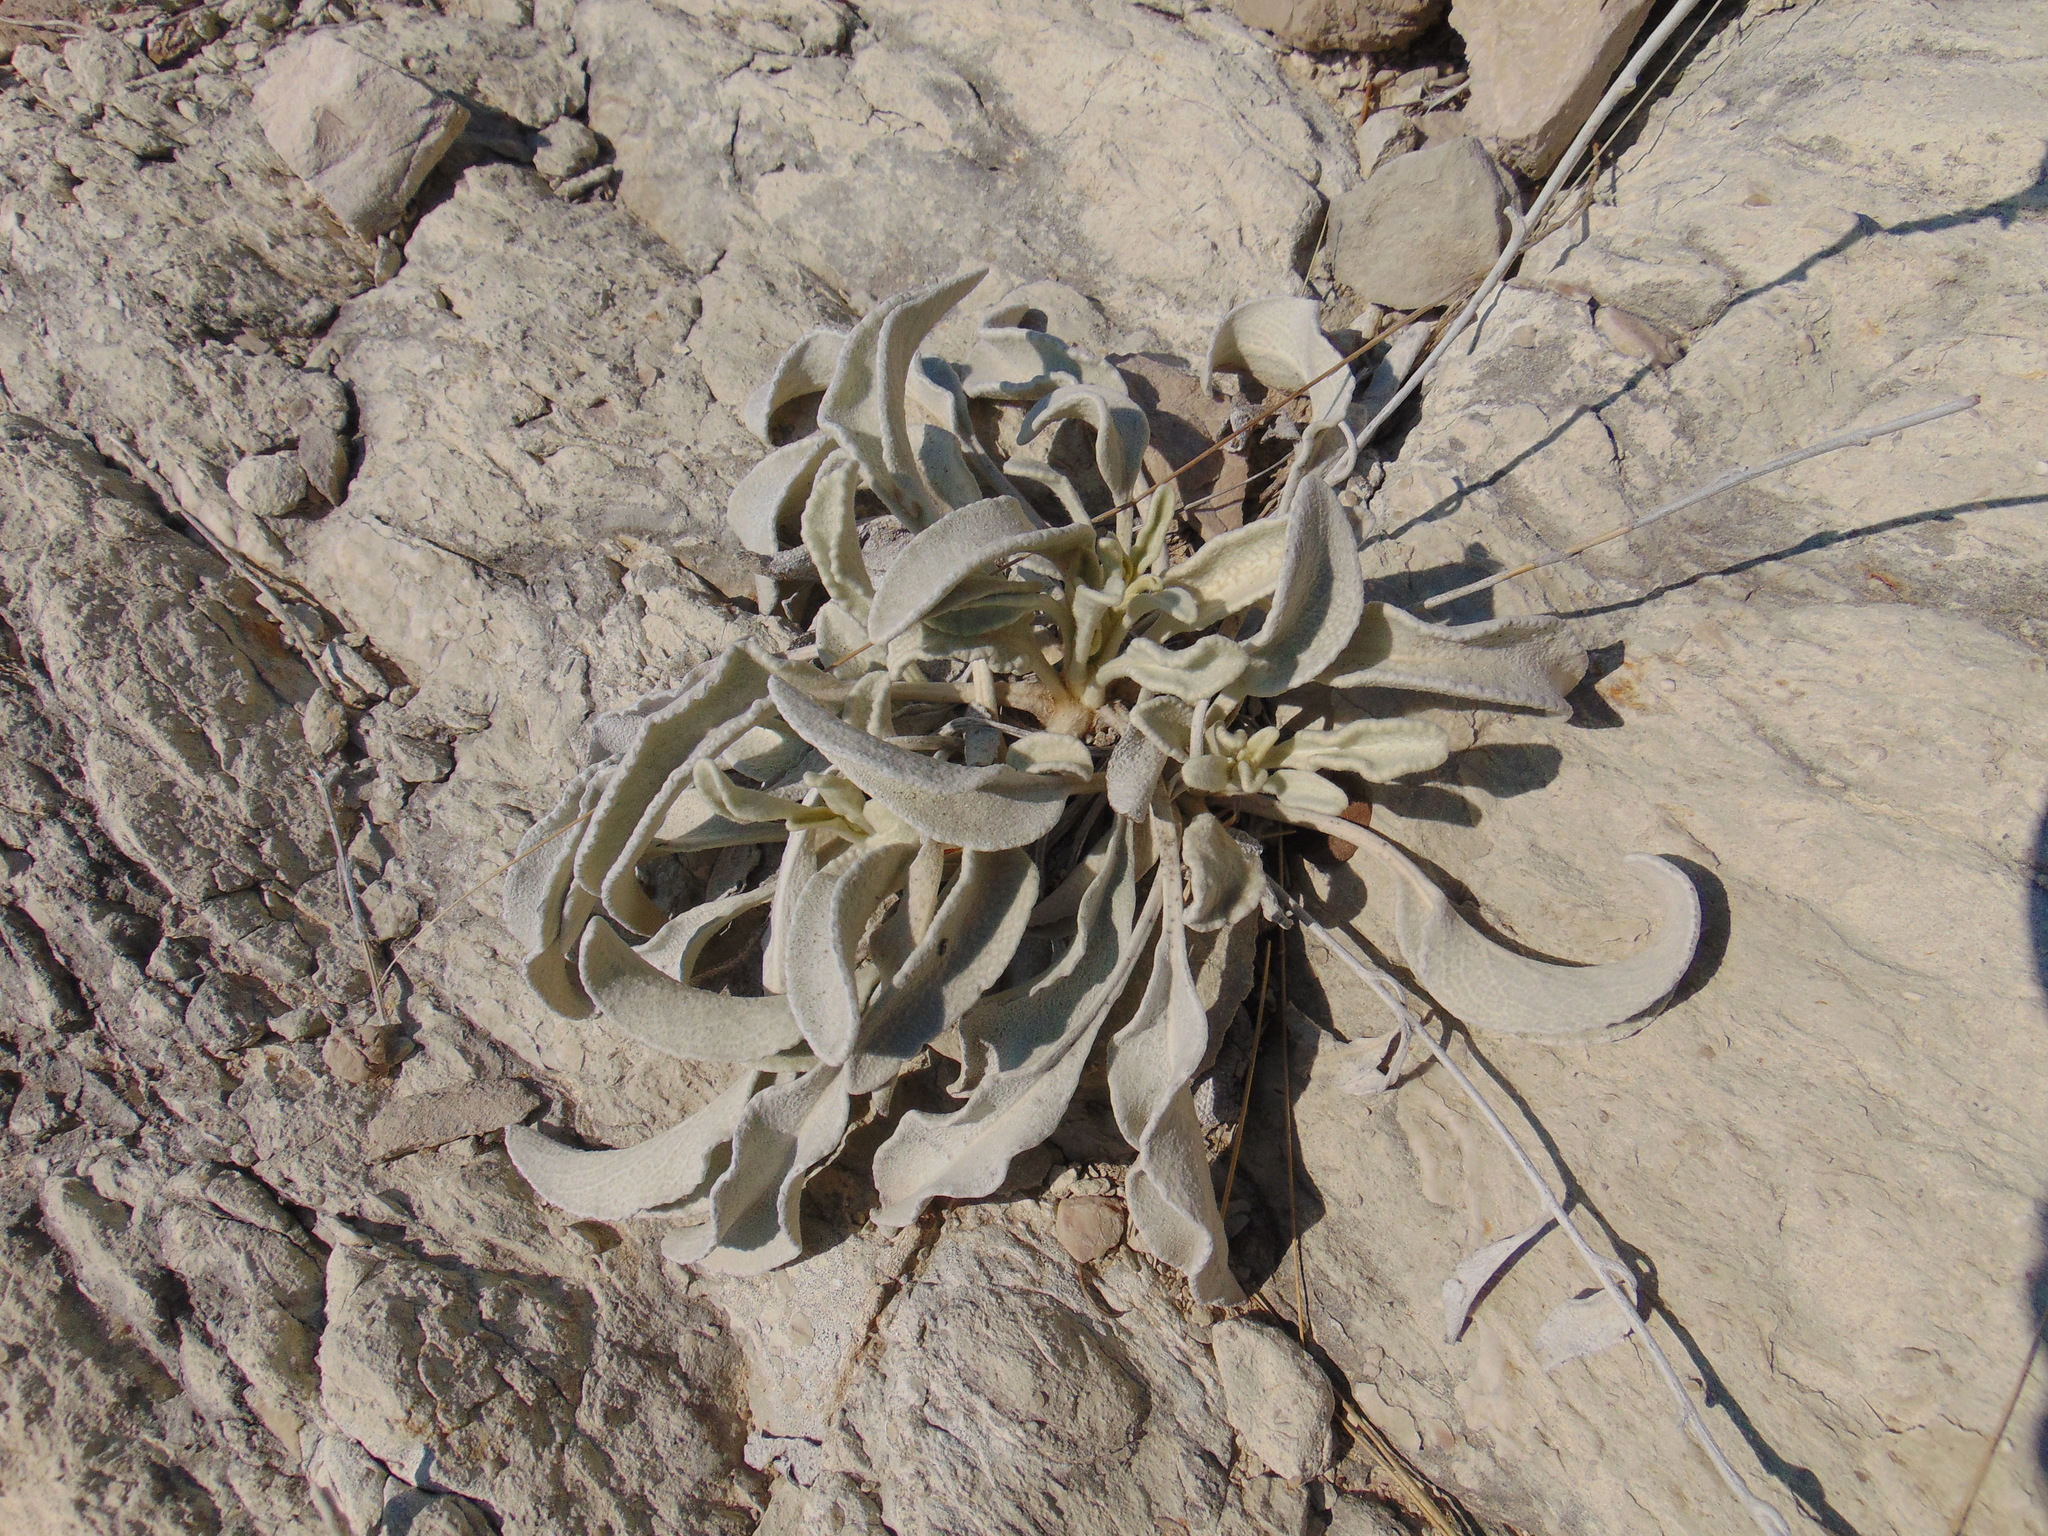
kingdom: Plantae
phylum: Tracheophyta
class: Magnoliopsida
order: Asterales
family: Asteraceae
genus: Pentanema
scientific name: Pentanema verbascifolium
